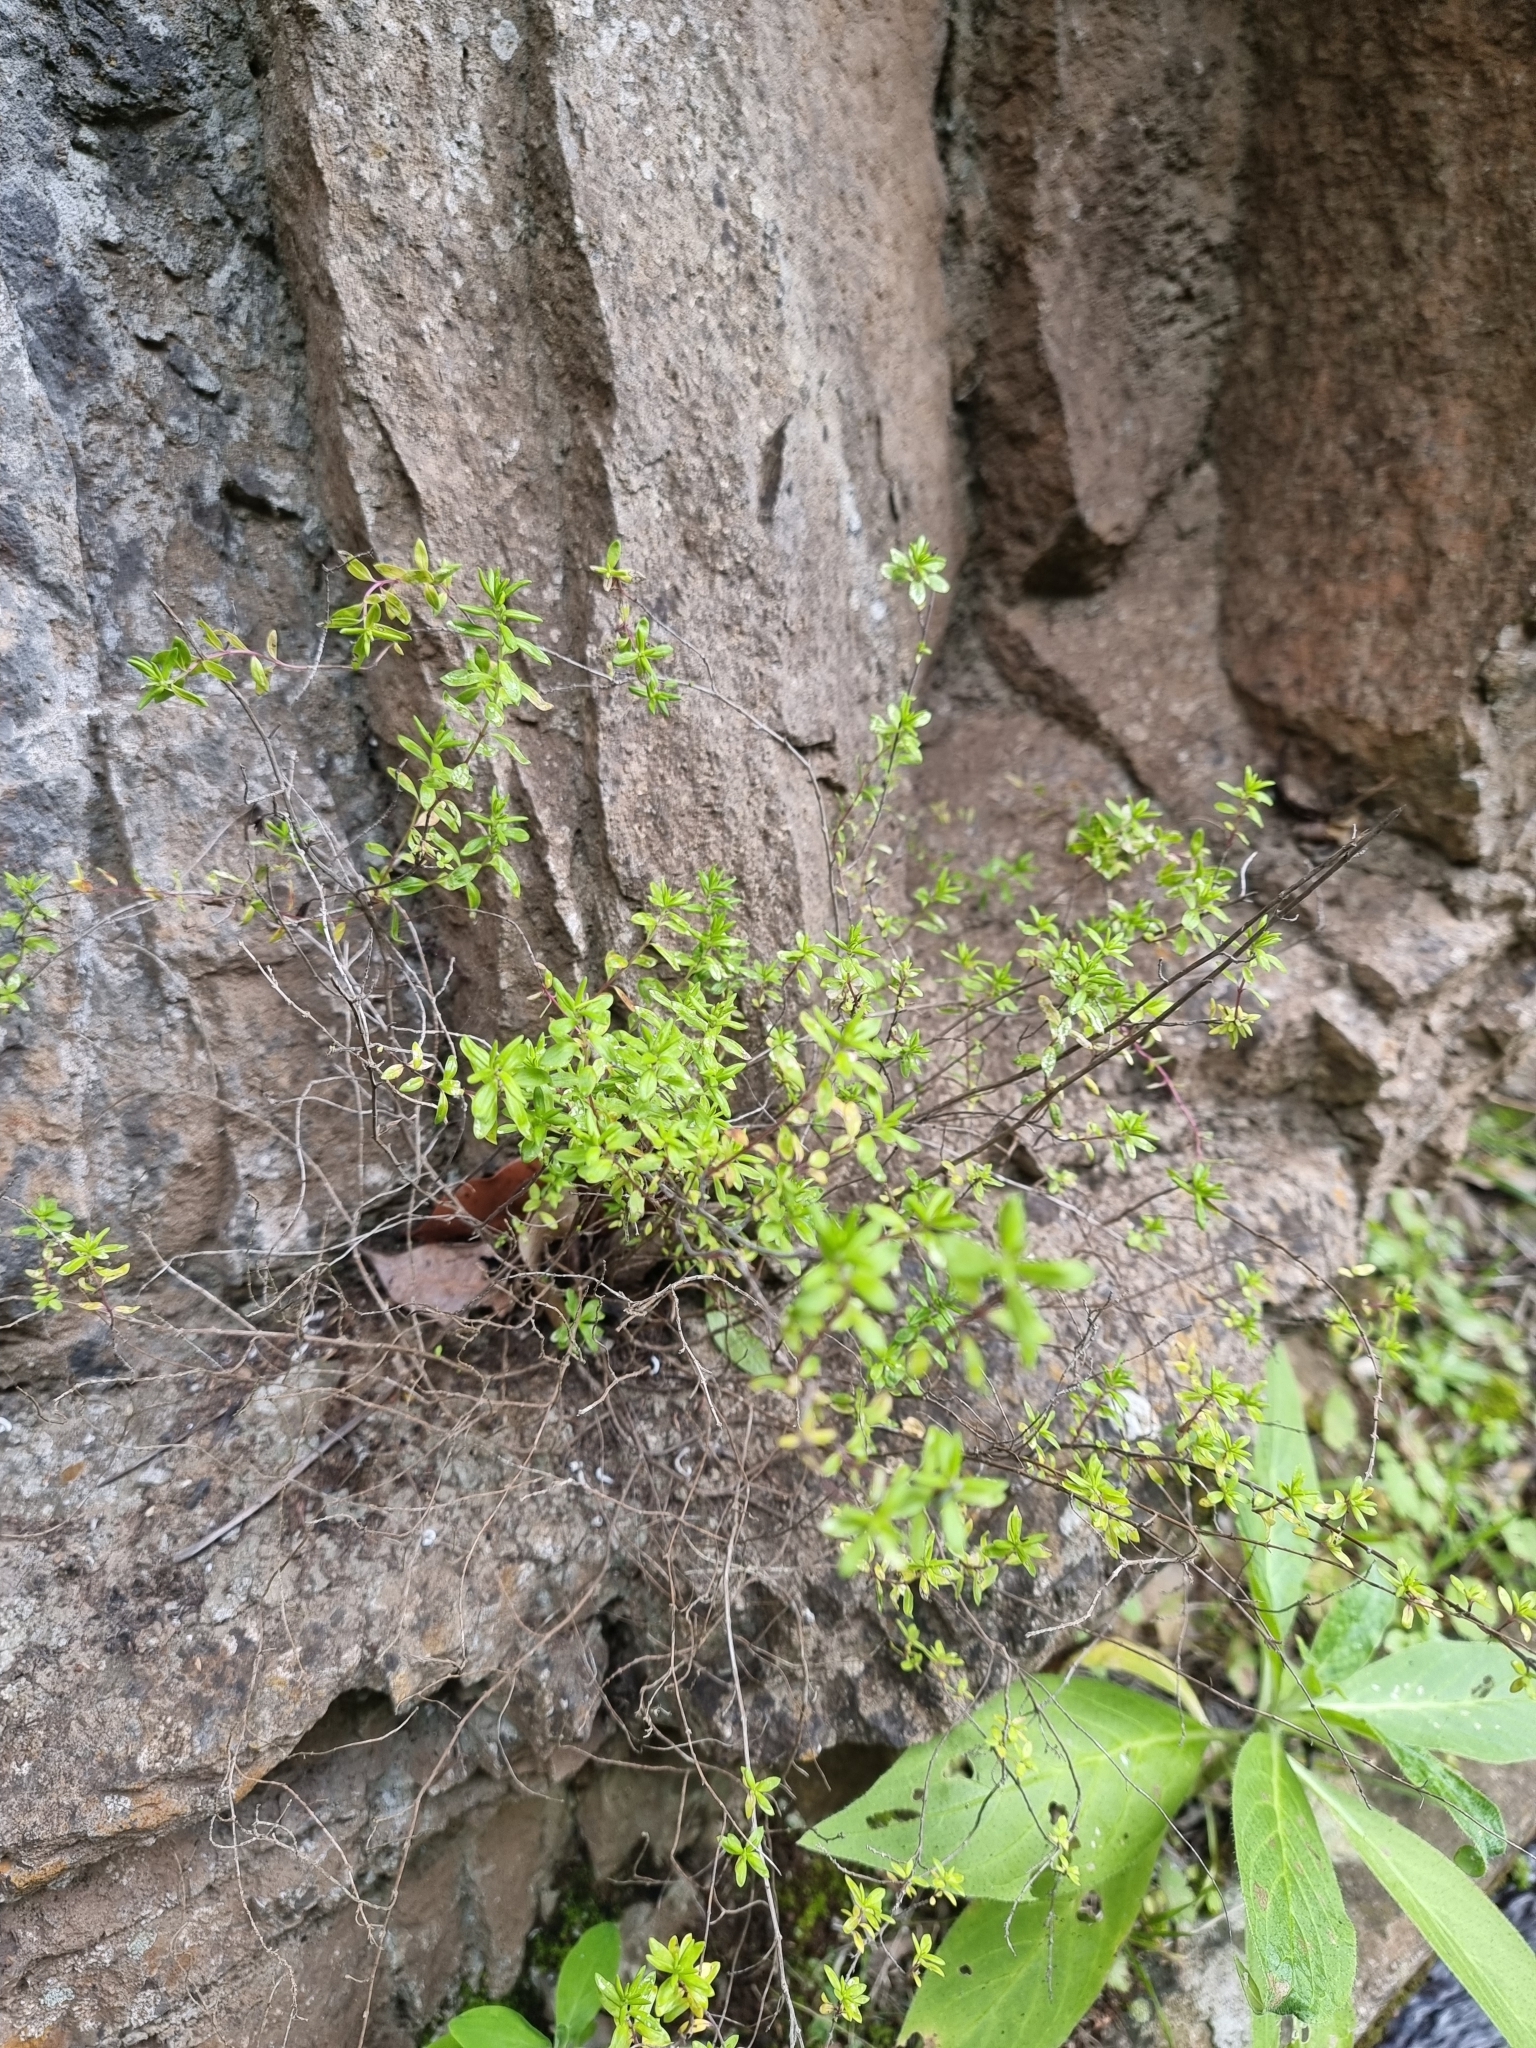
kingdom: Plantae
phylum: Tracheophyta
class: Magnoliopsida
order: Lamiales
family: Lamiaceae
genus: Micromeria
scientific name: Micromeria maderensis
